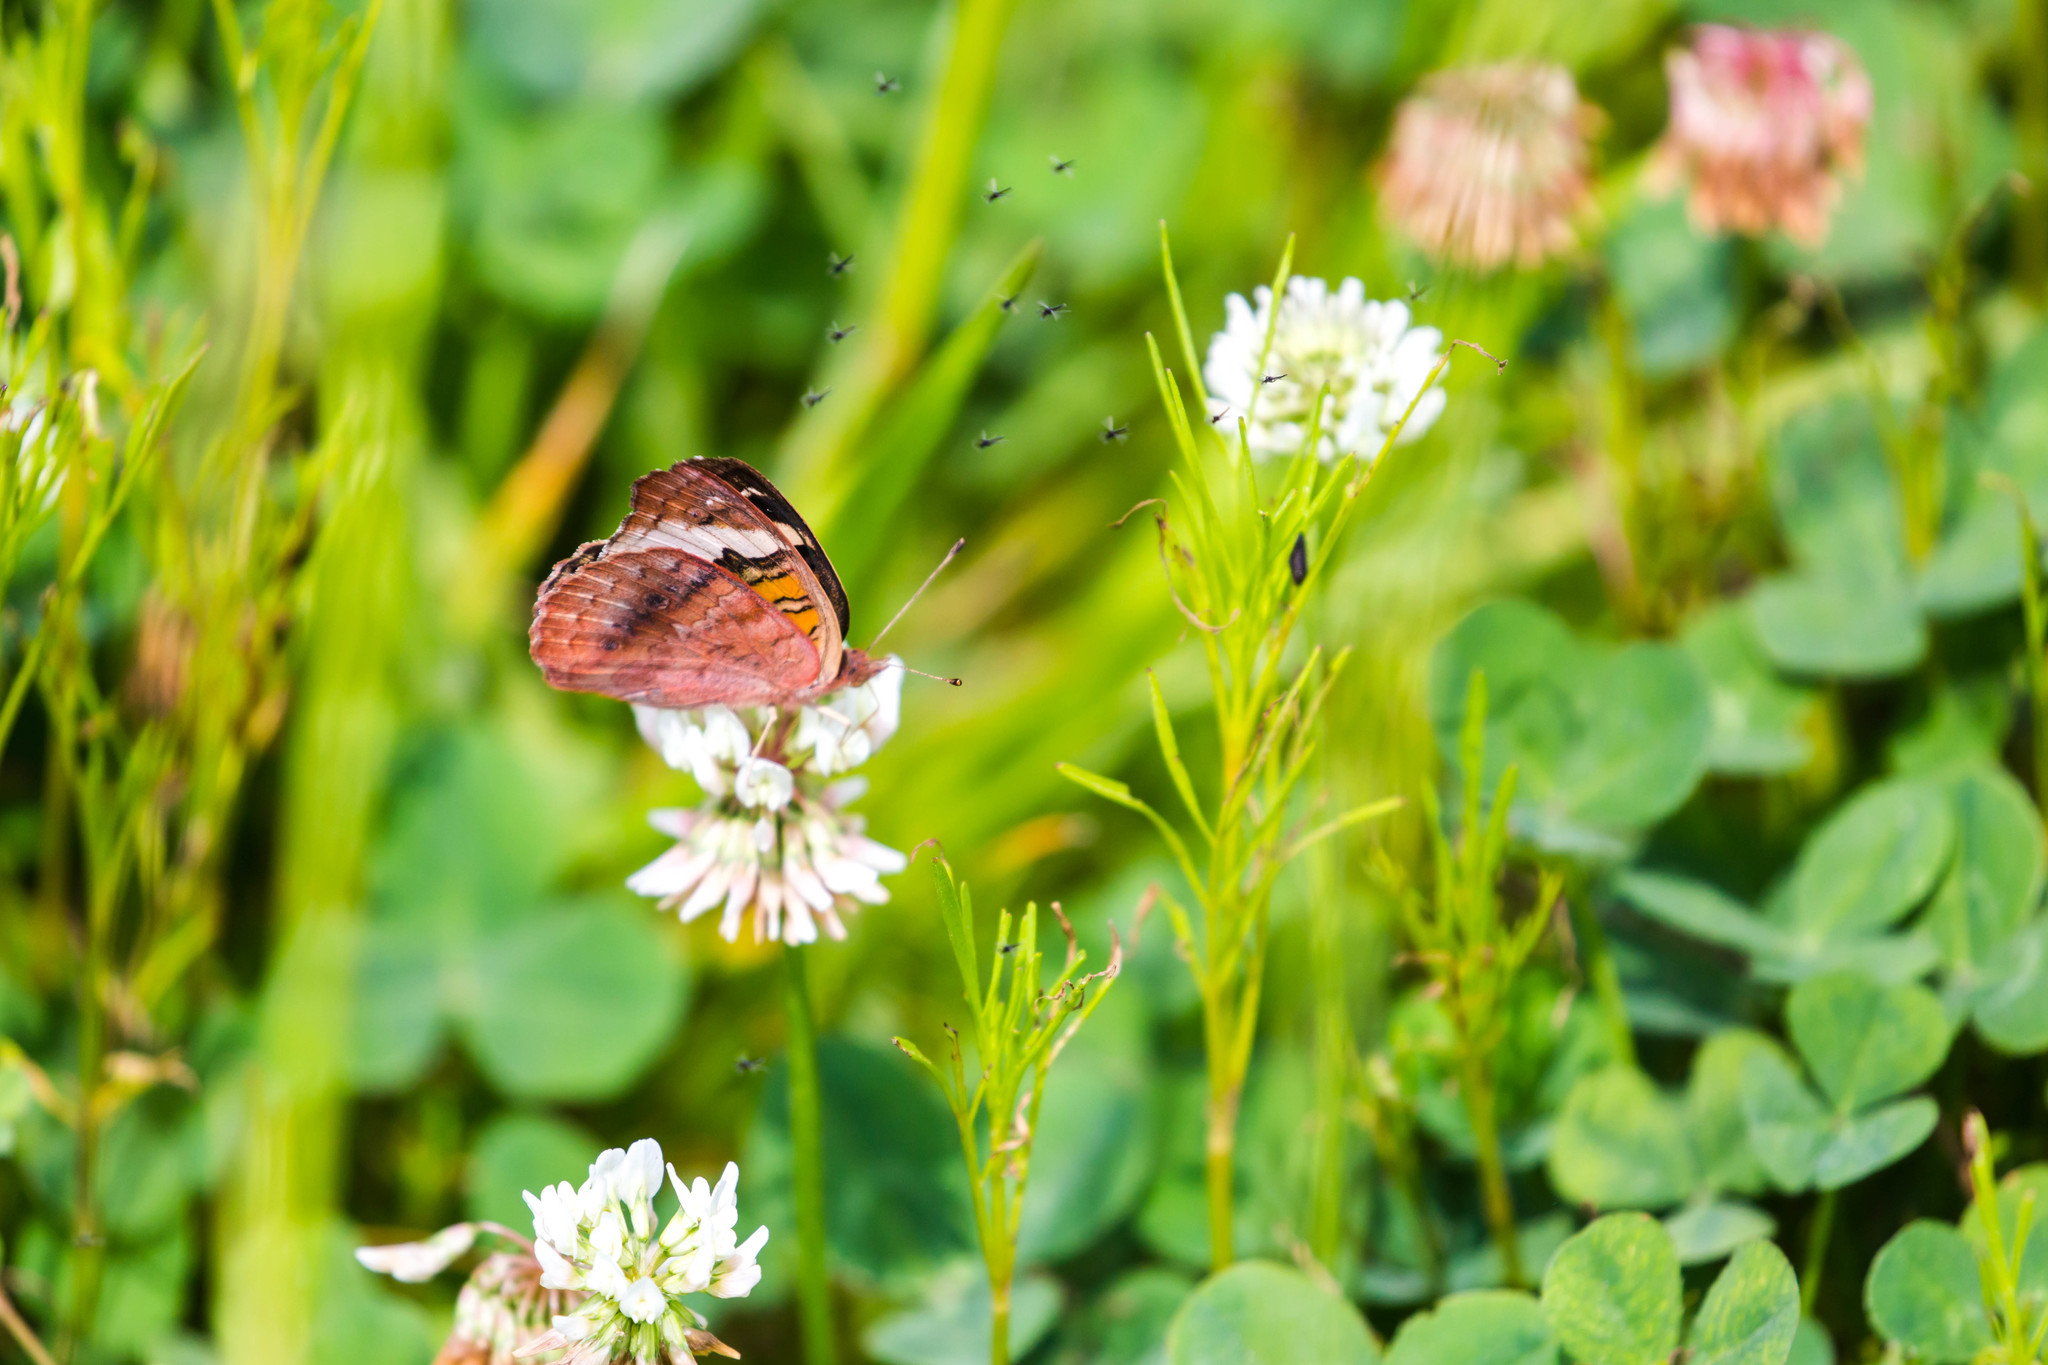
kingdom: Animalia
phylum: Arthropoda
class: Insecta
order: Lepidoptera
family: Nymphalidae
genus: Junonia
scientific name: Junonia coenia
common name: Common buckeye
